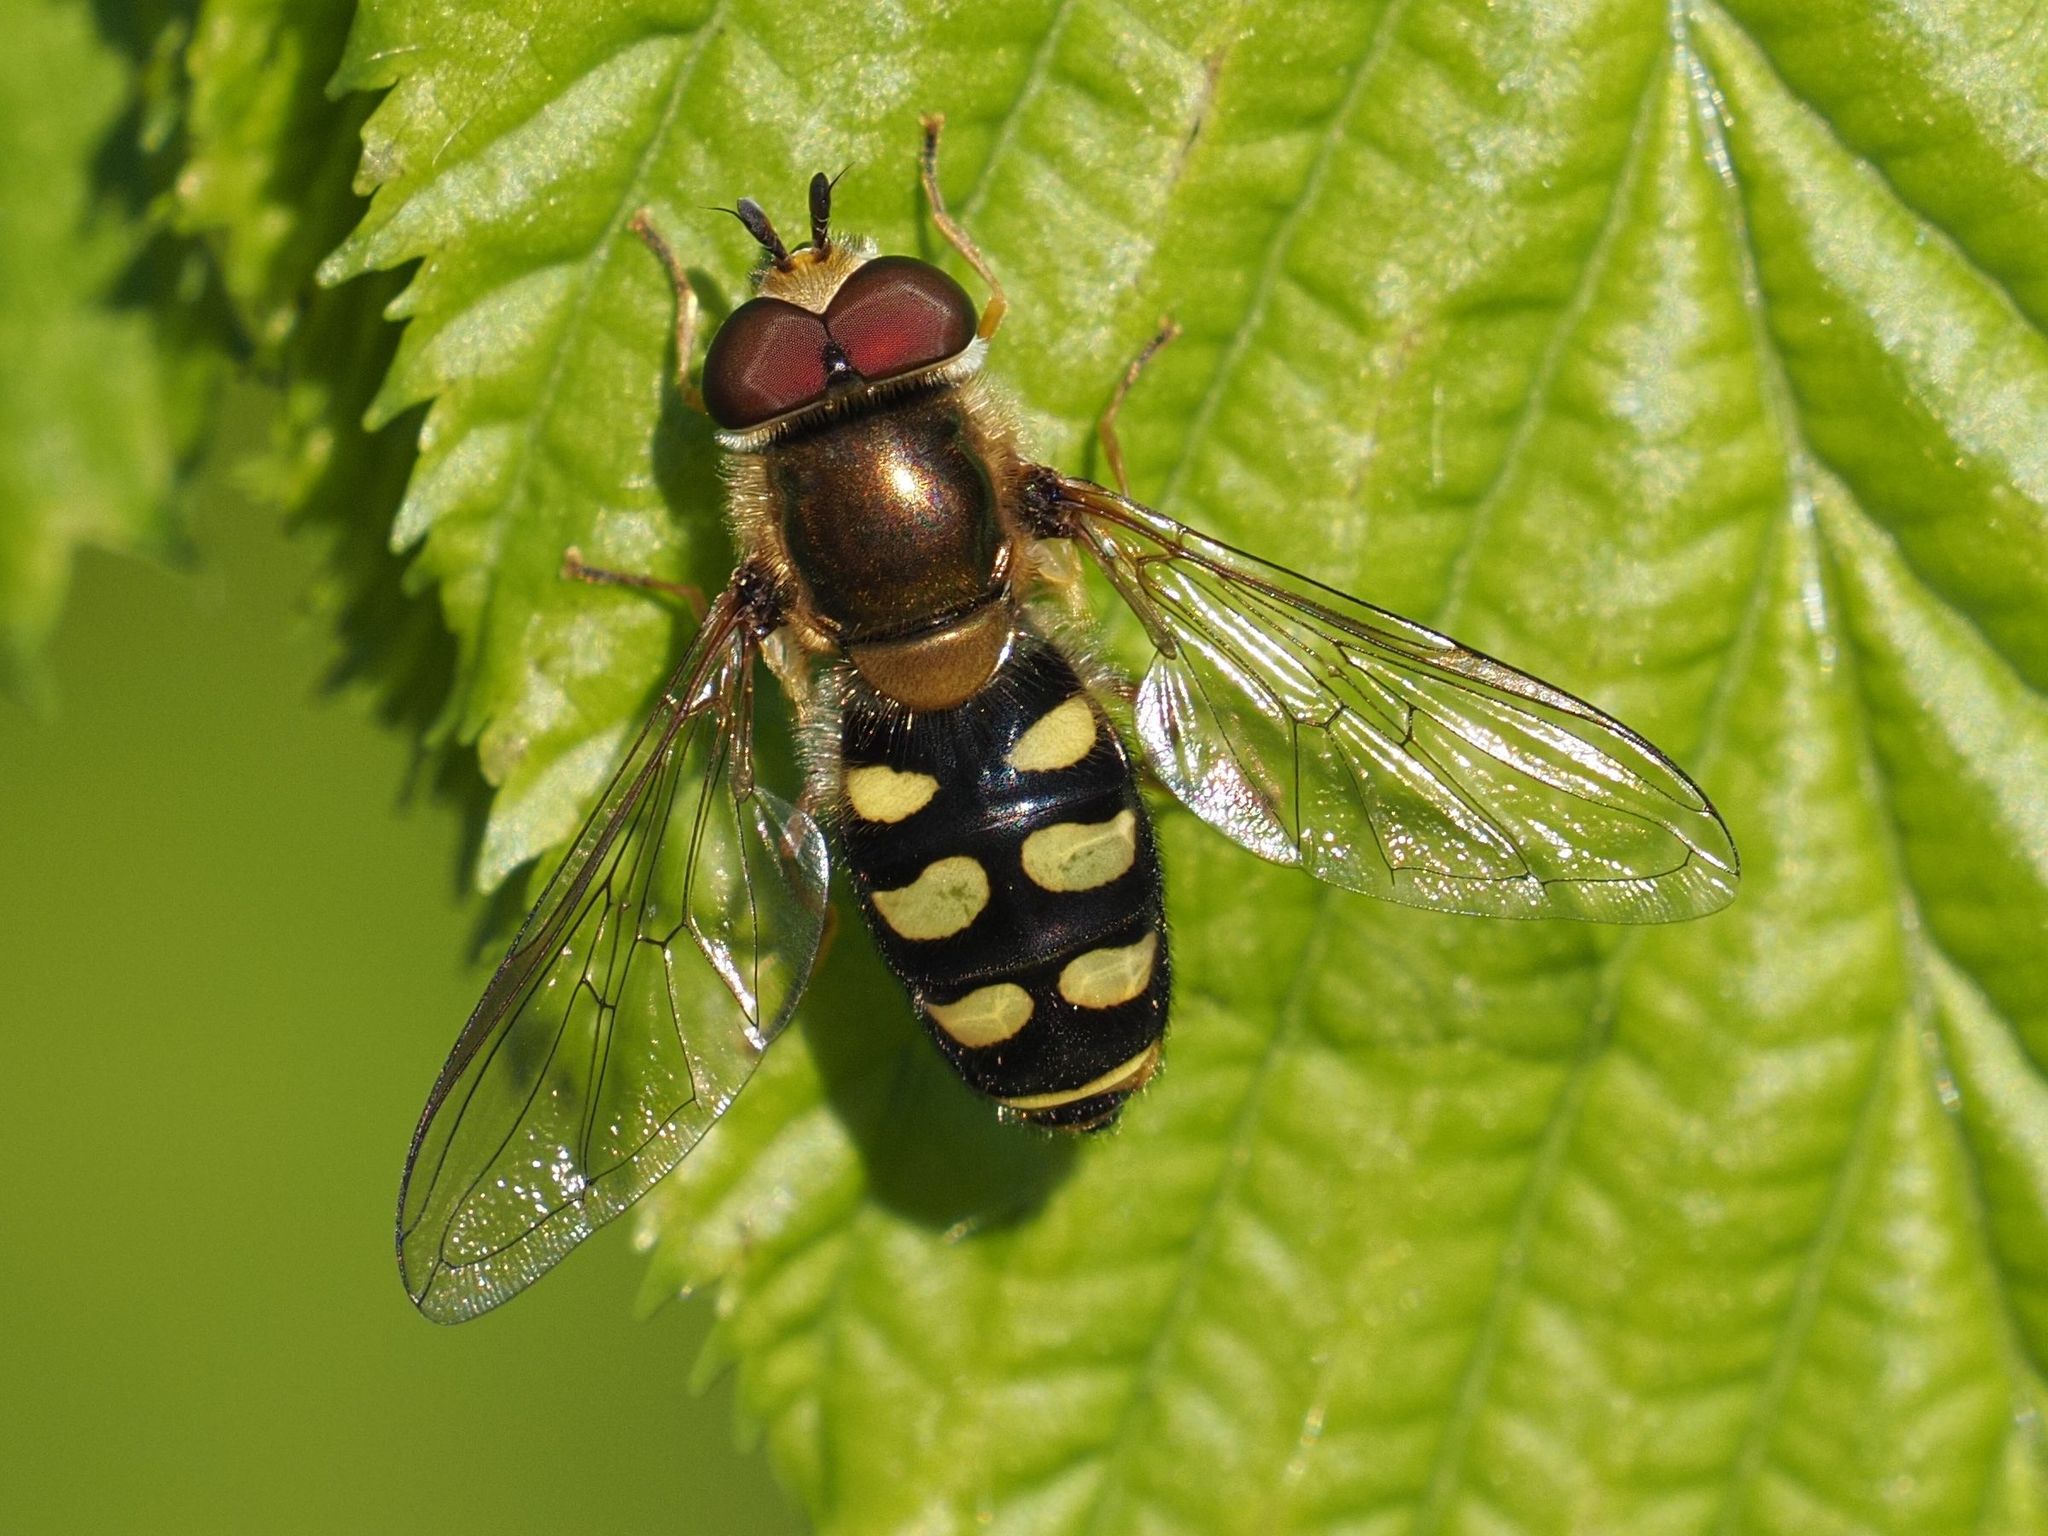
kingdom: Animalia
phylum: Arthropoda
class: Insecta
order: Diptera
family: Syrphidae
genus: Eupeodes
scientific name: Eupeodes luniger
